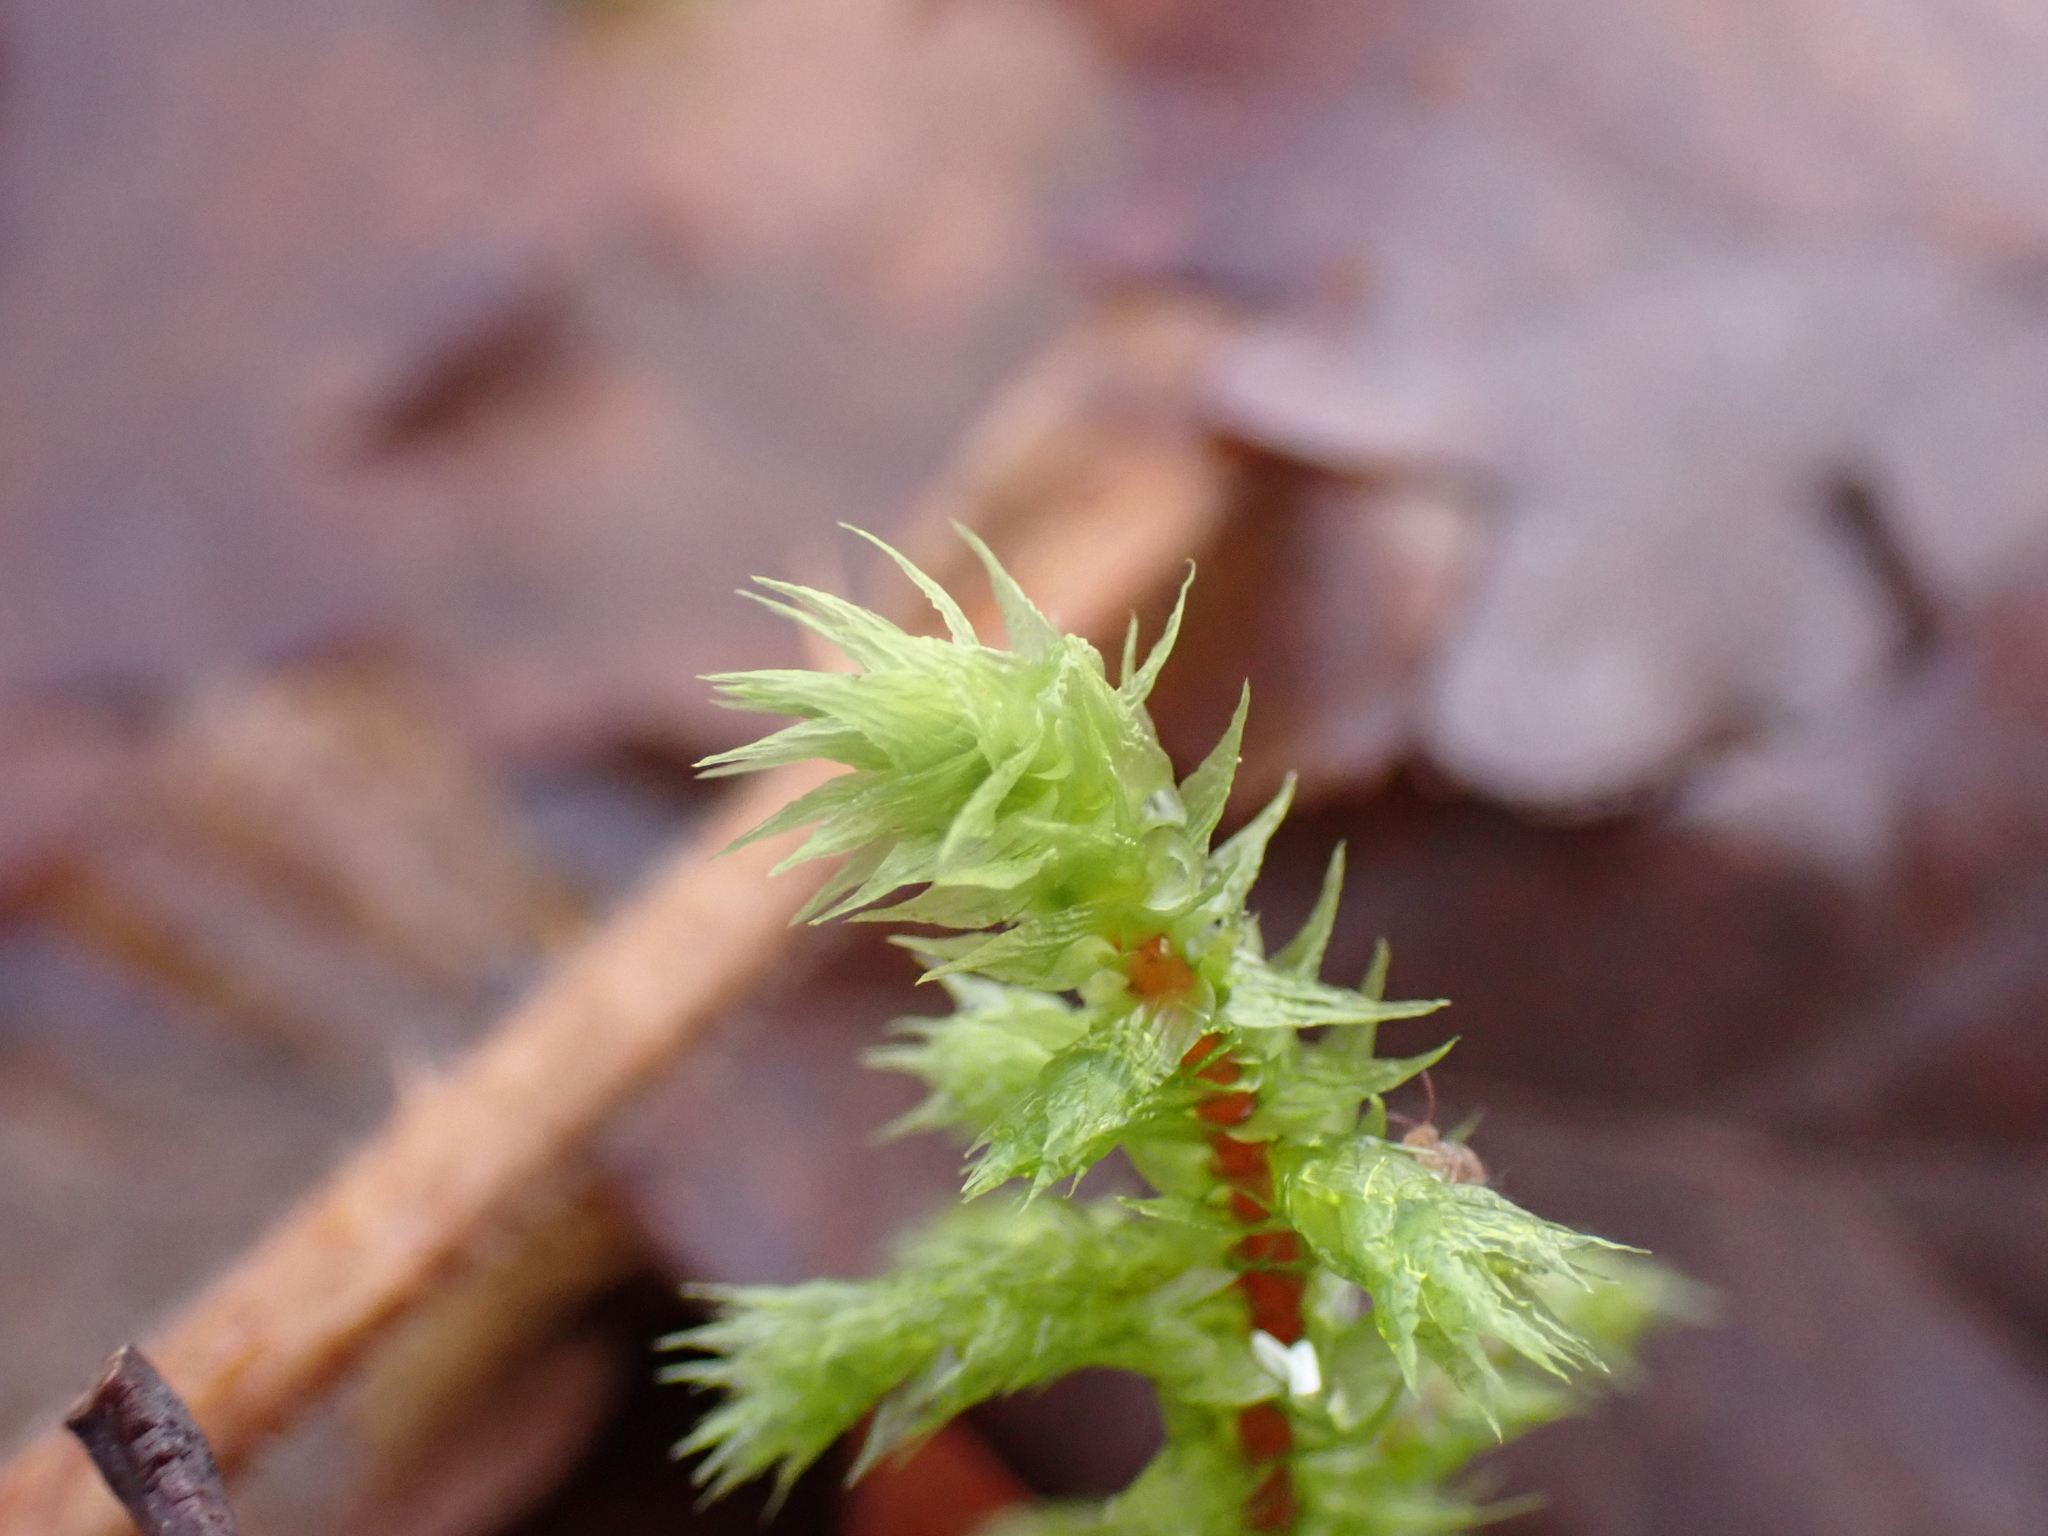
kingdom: Plantae
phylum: Bryophyta
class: Bryopsida
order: Hypnales
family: Hylocomiaceae
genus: Hylocomiadelphus
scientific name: Hylocomiadelphus triquetrus
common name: Rough goose neck moss
